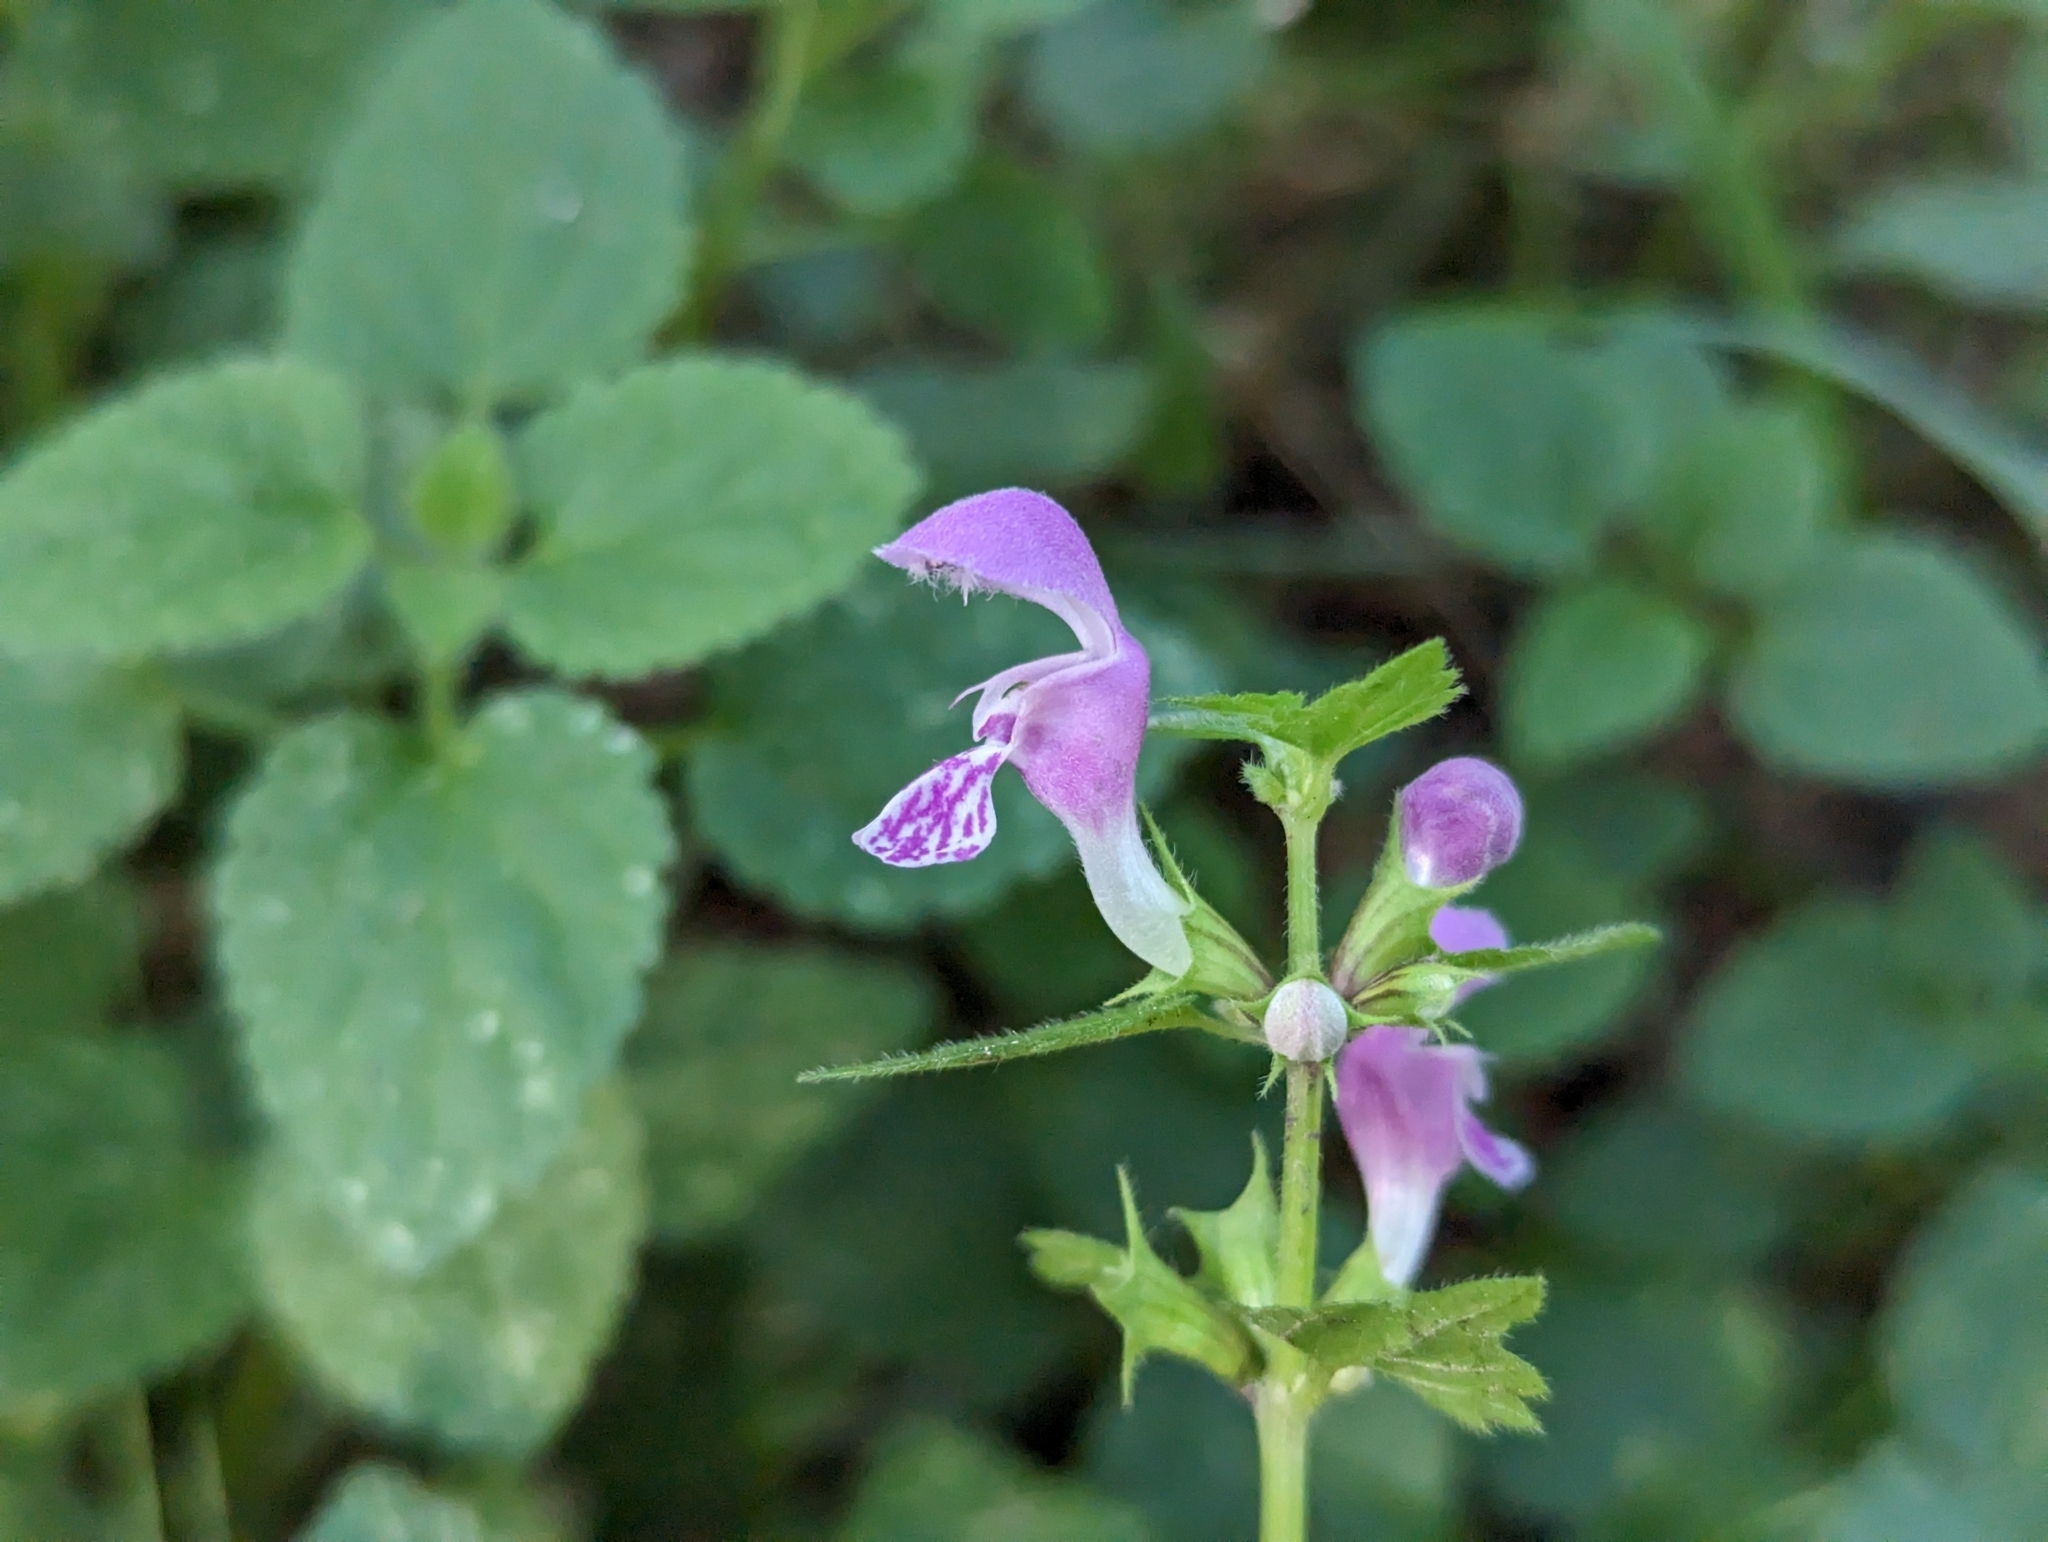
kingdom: Plantae
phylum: Tracheophyta
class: Magnoliopsida
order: Lamiales
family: Lamiaceae
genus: Lamium
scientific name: Lamium maculatum
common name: Spotted dead-nettle
